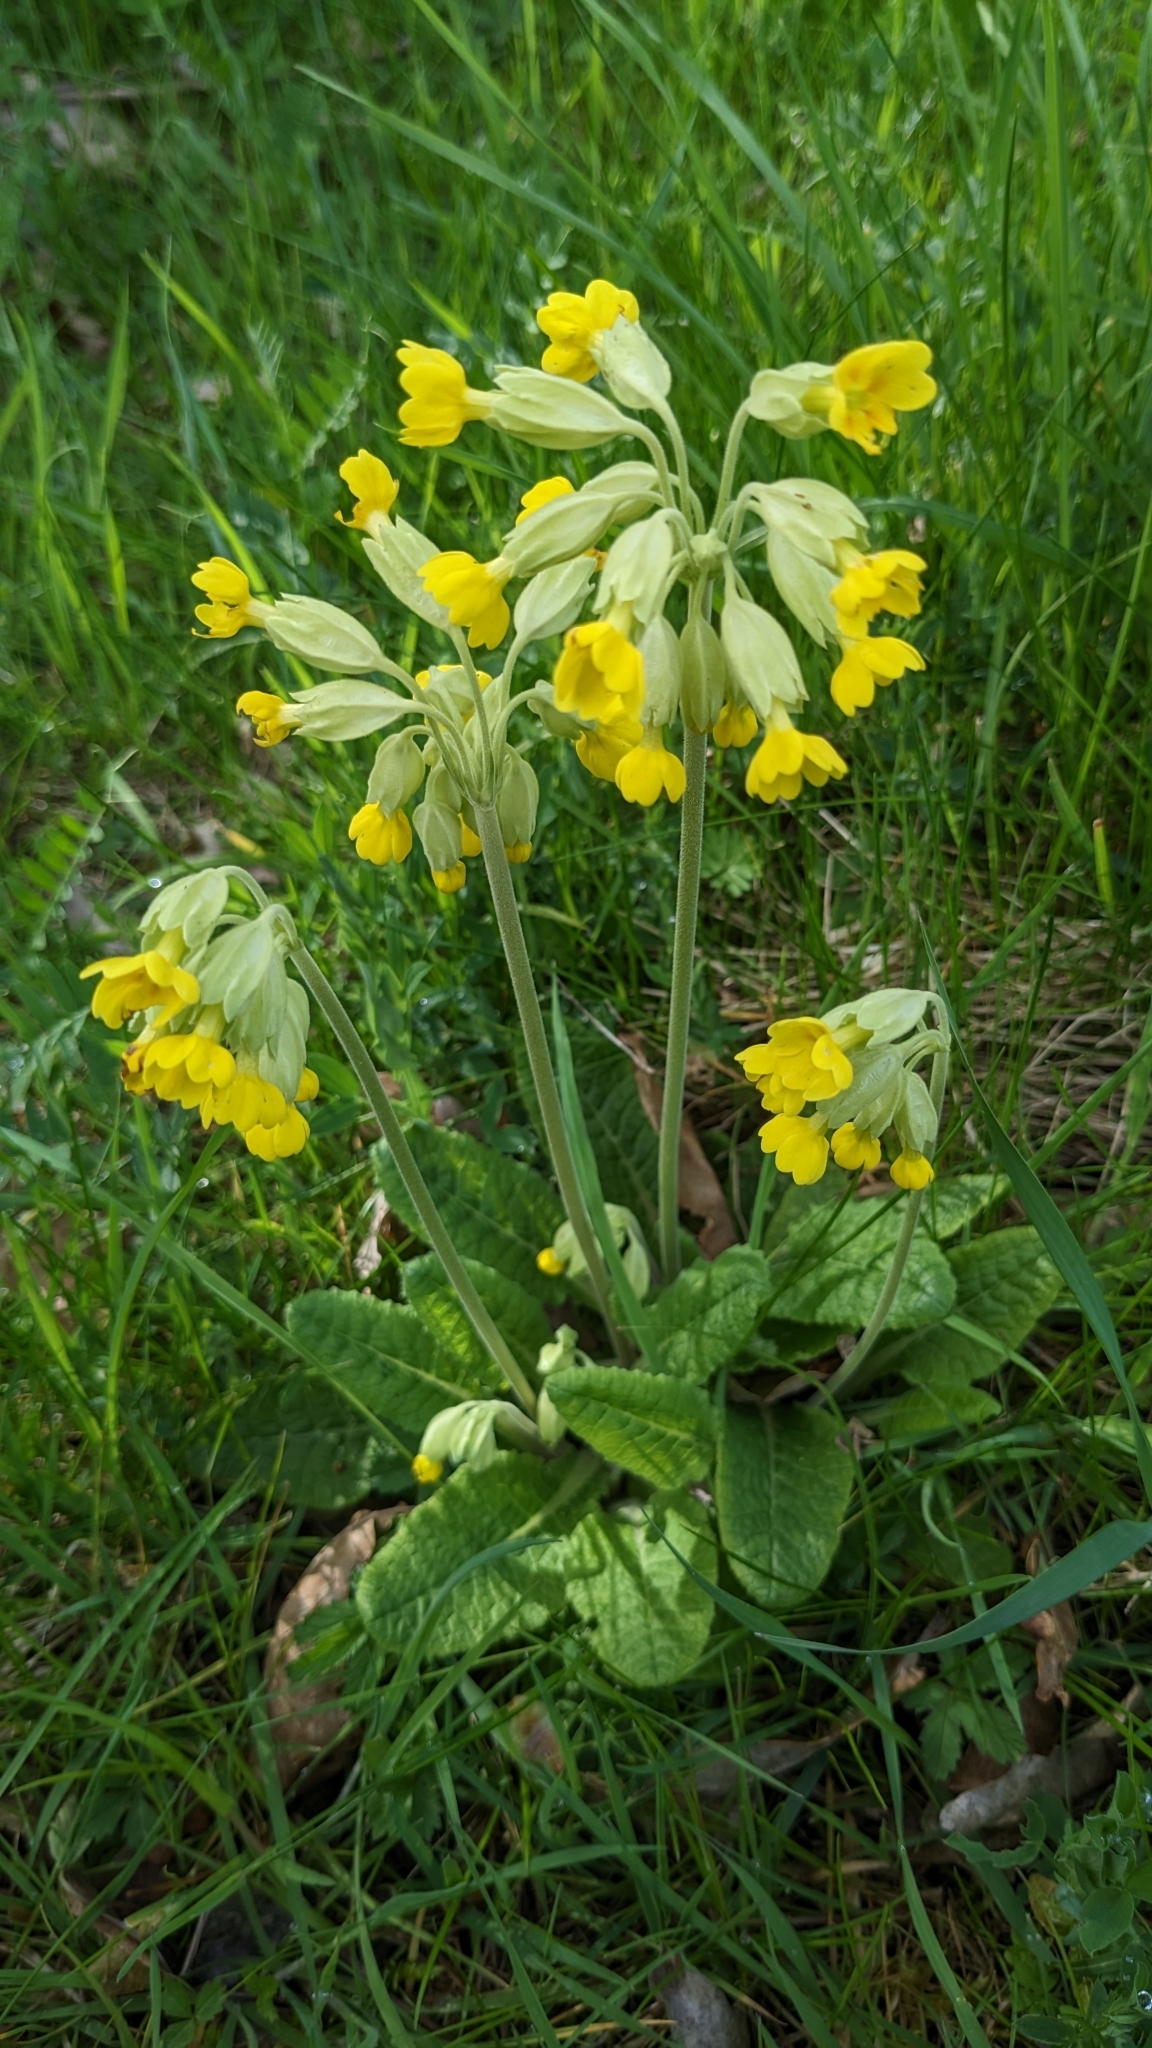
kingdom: Plantae
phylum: Tracheophyta
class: Magnoliopsida
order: Ericales
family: Primulaceae
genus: Primula
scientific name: Primula veris
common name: Cowslip
